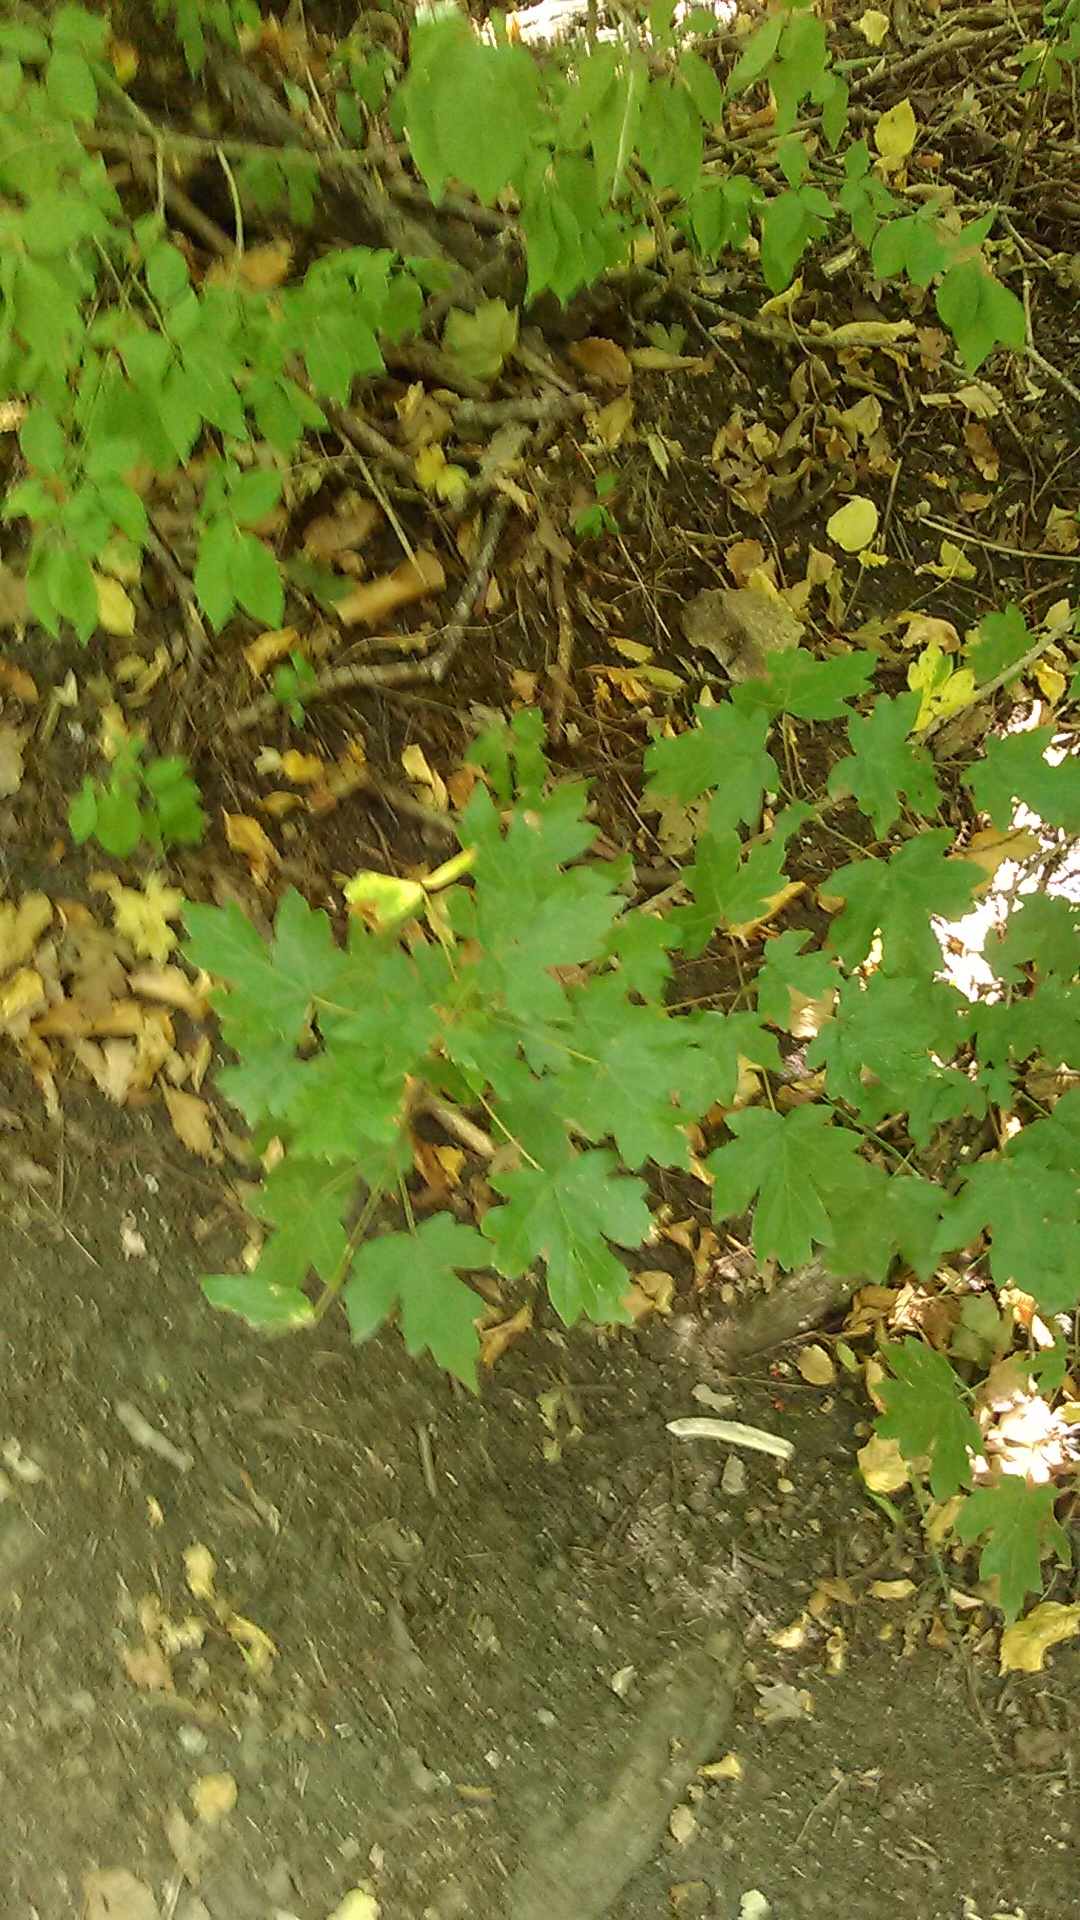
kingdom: Plantae
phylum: Tracheophyta
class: Magnoliopsida
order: Sapindales
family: Sapindaceae
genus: Acer
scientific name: Acer campestre
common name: Field maple
